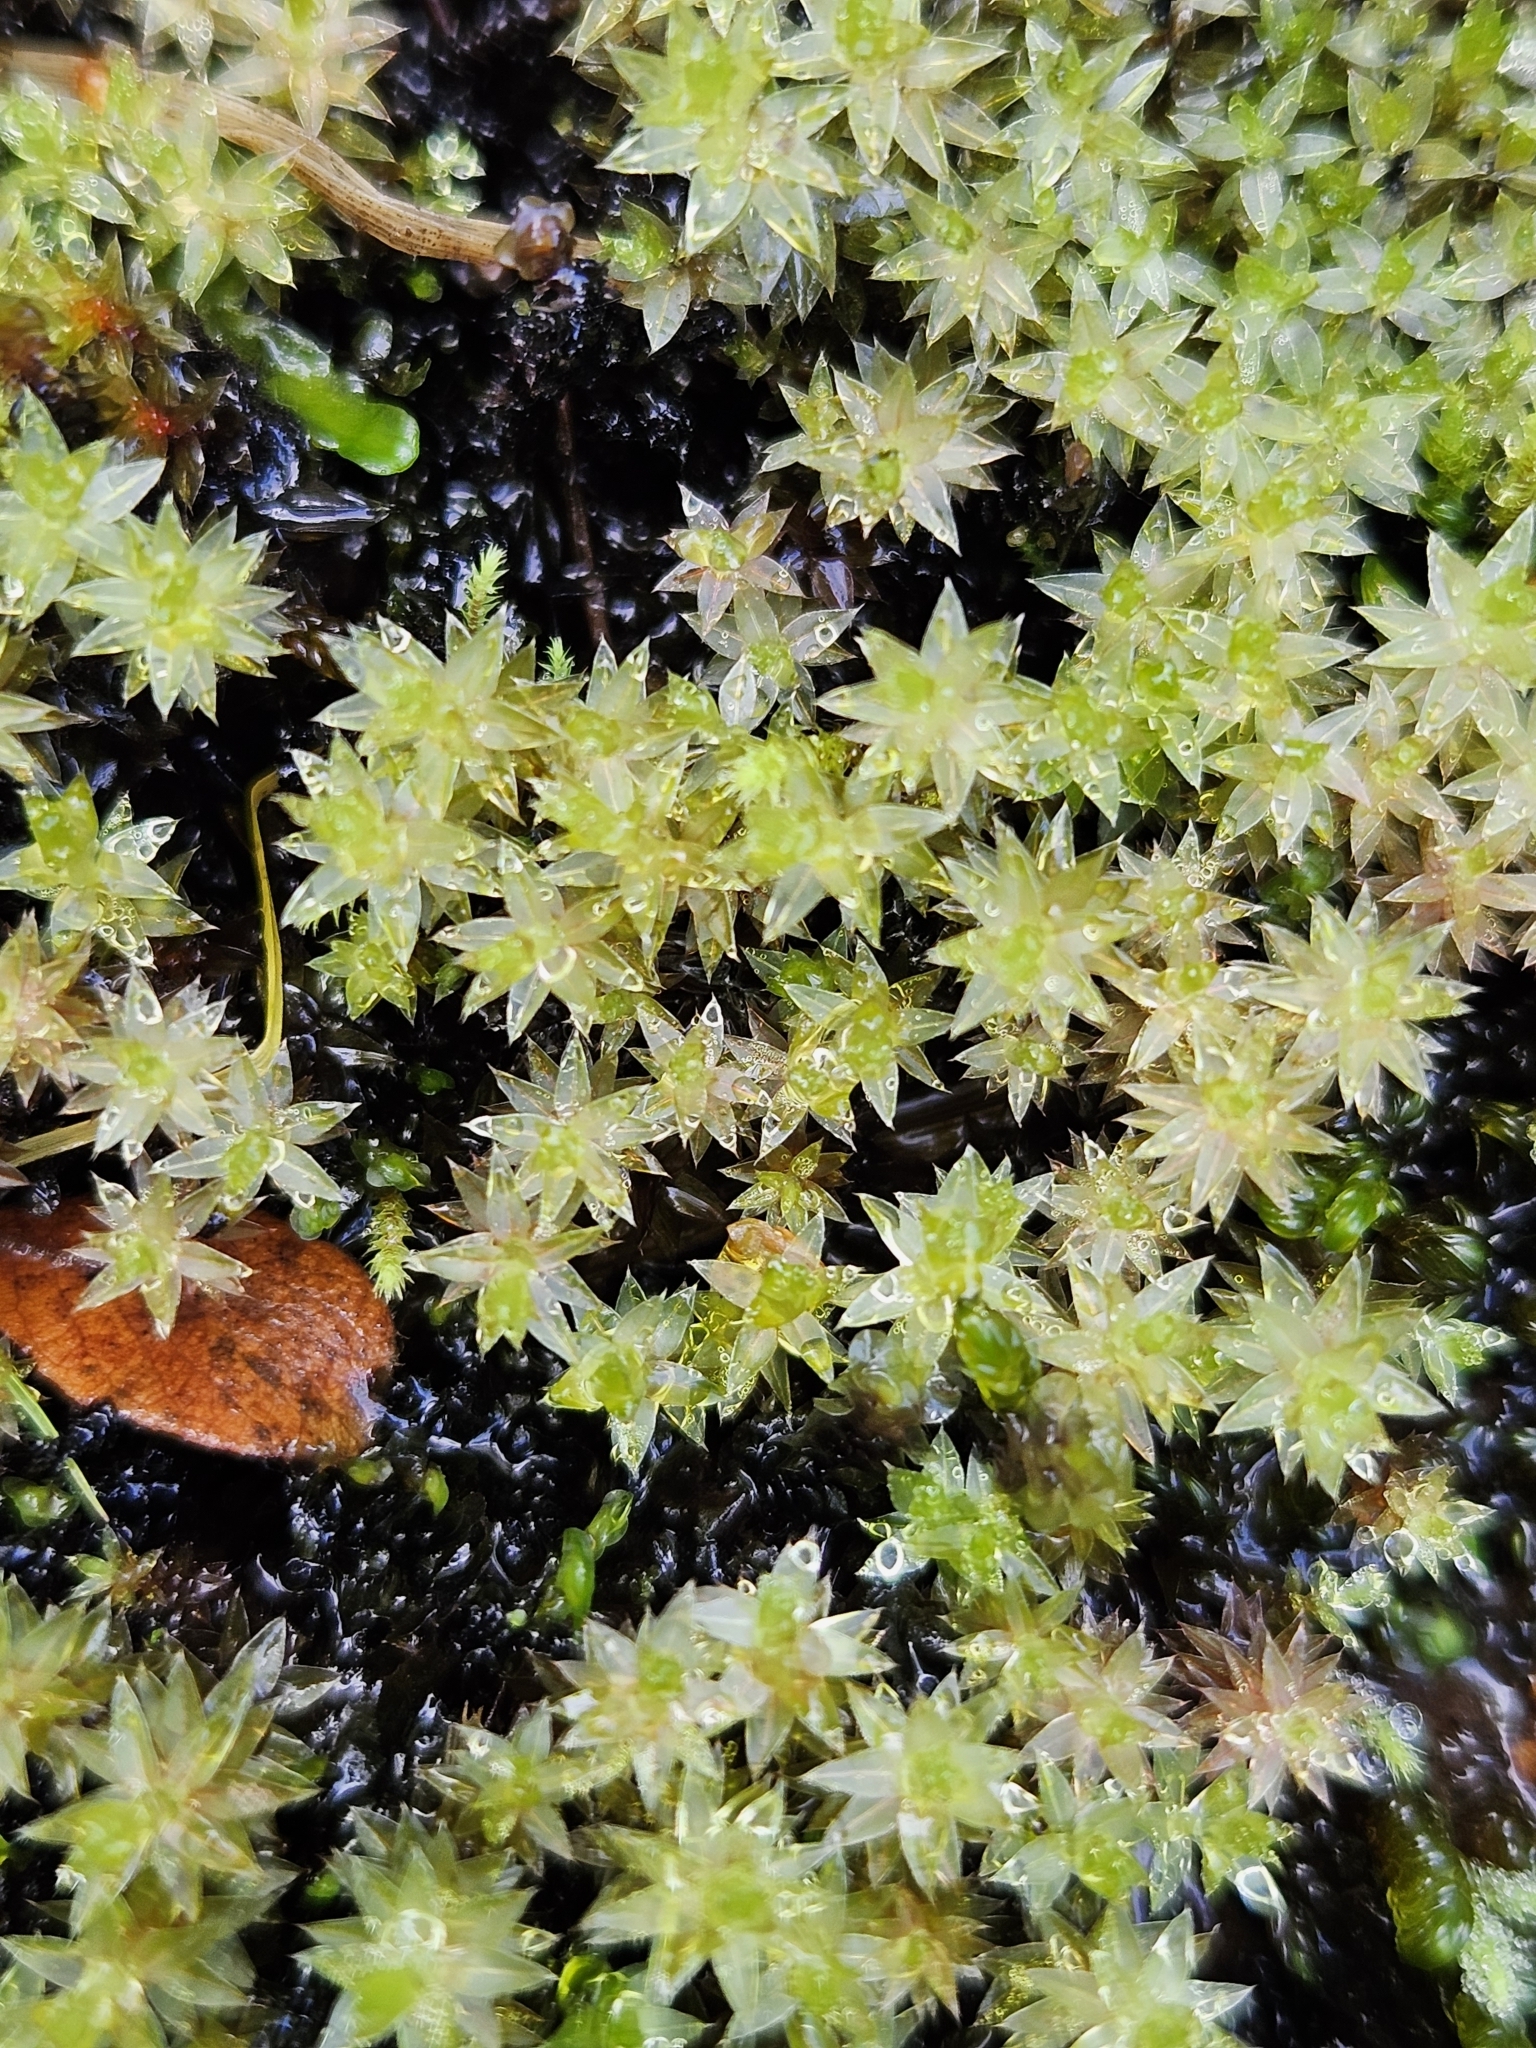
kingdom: Plantae
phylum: Bryophyta
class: Bryopsida
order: Bryales
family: Bryaceae
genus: Ptychostomum
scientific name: Ptychostomum pseudotriquetrum
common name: Long-leaved thread moss
